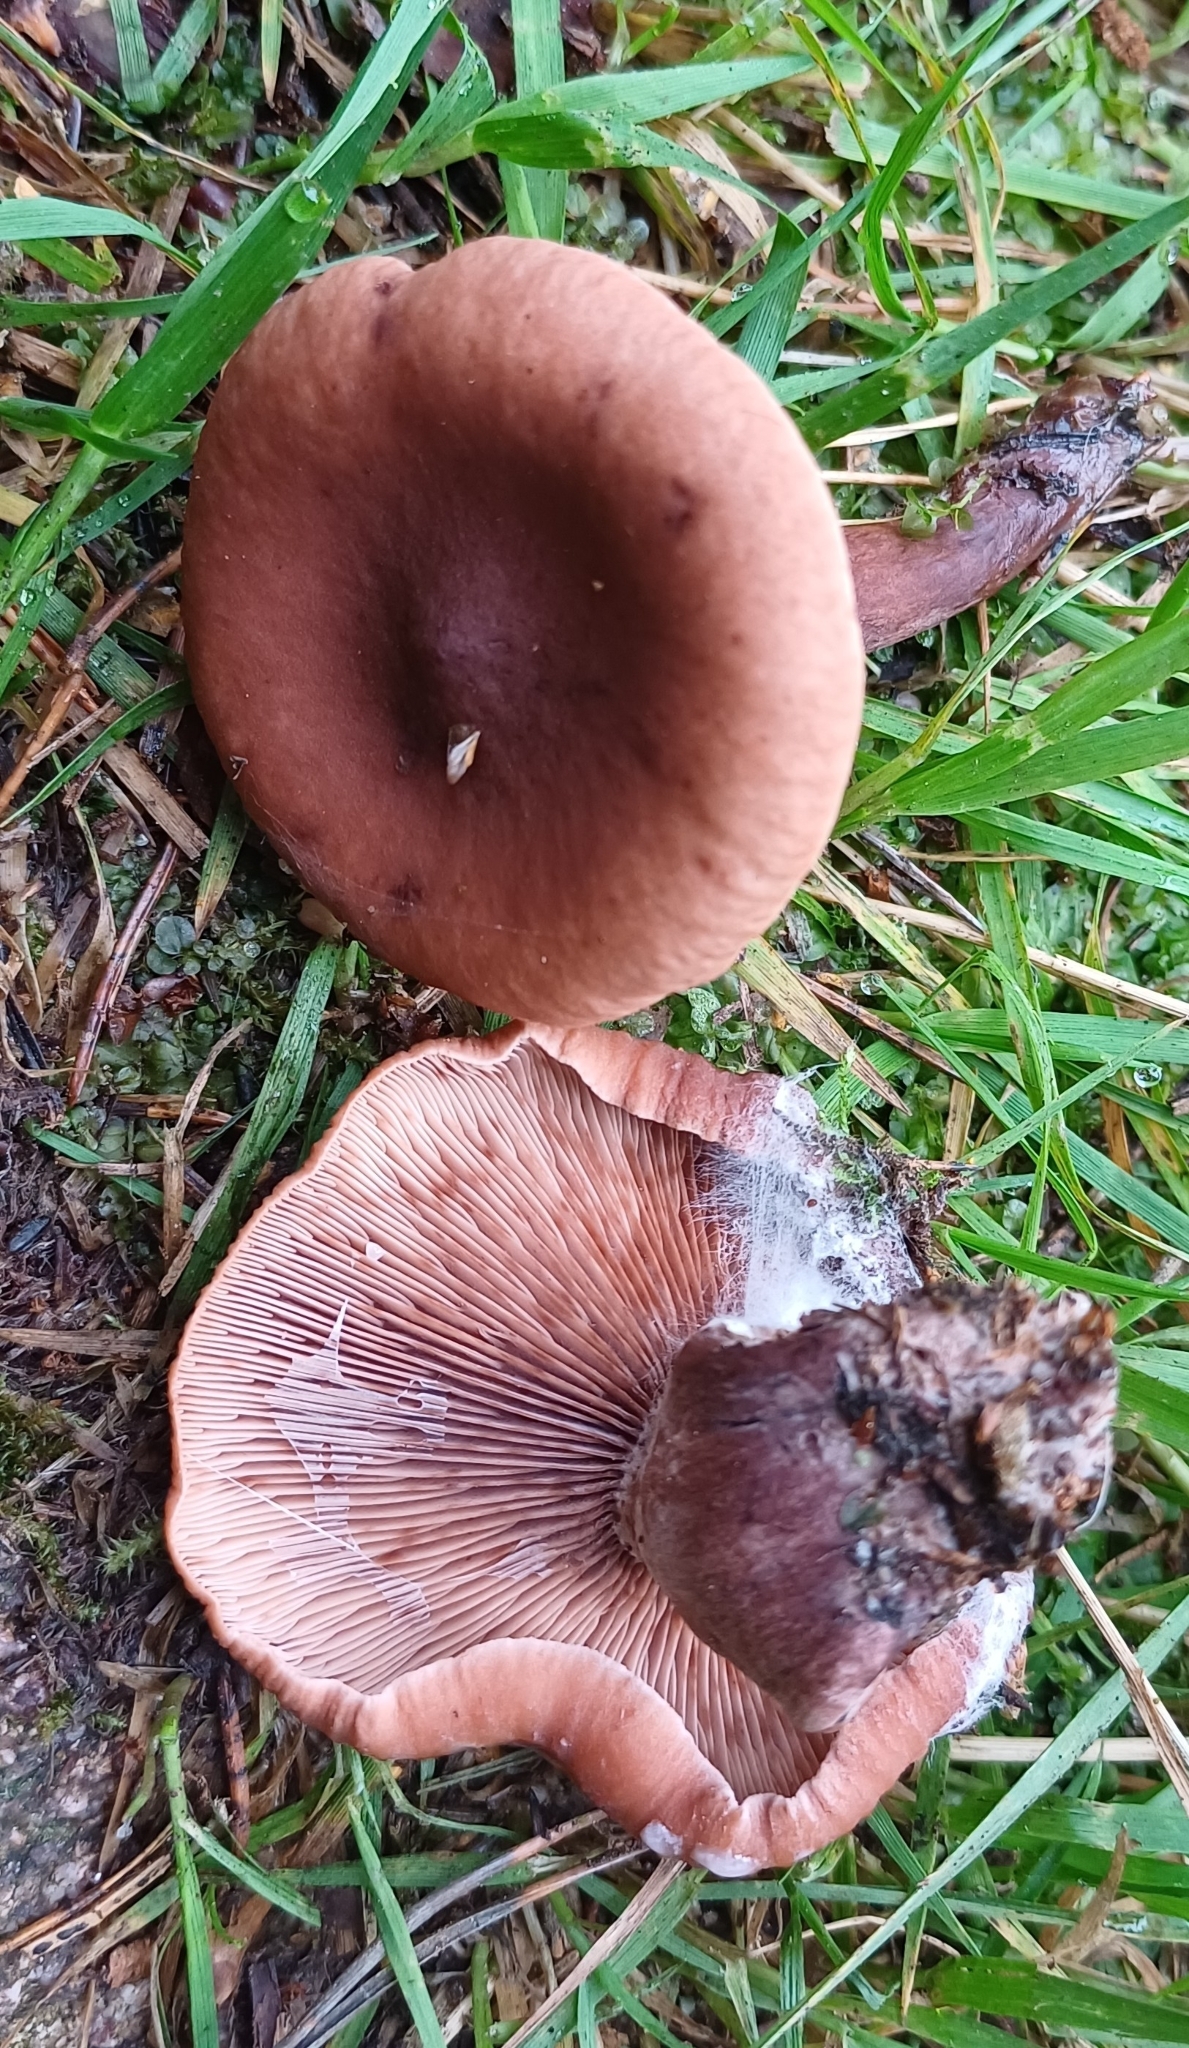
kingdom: Fungi
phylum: Basidiomycota
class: Agaricomycetes
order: Russulales
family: Russulaceae
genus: Lactarius
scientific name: Lactarius camphoratus
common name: Curry milkcap
